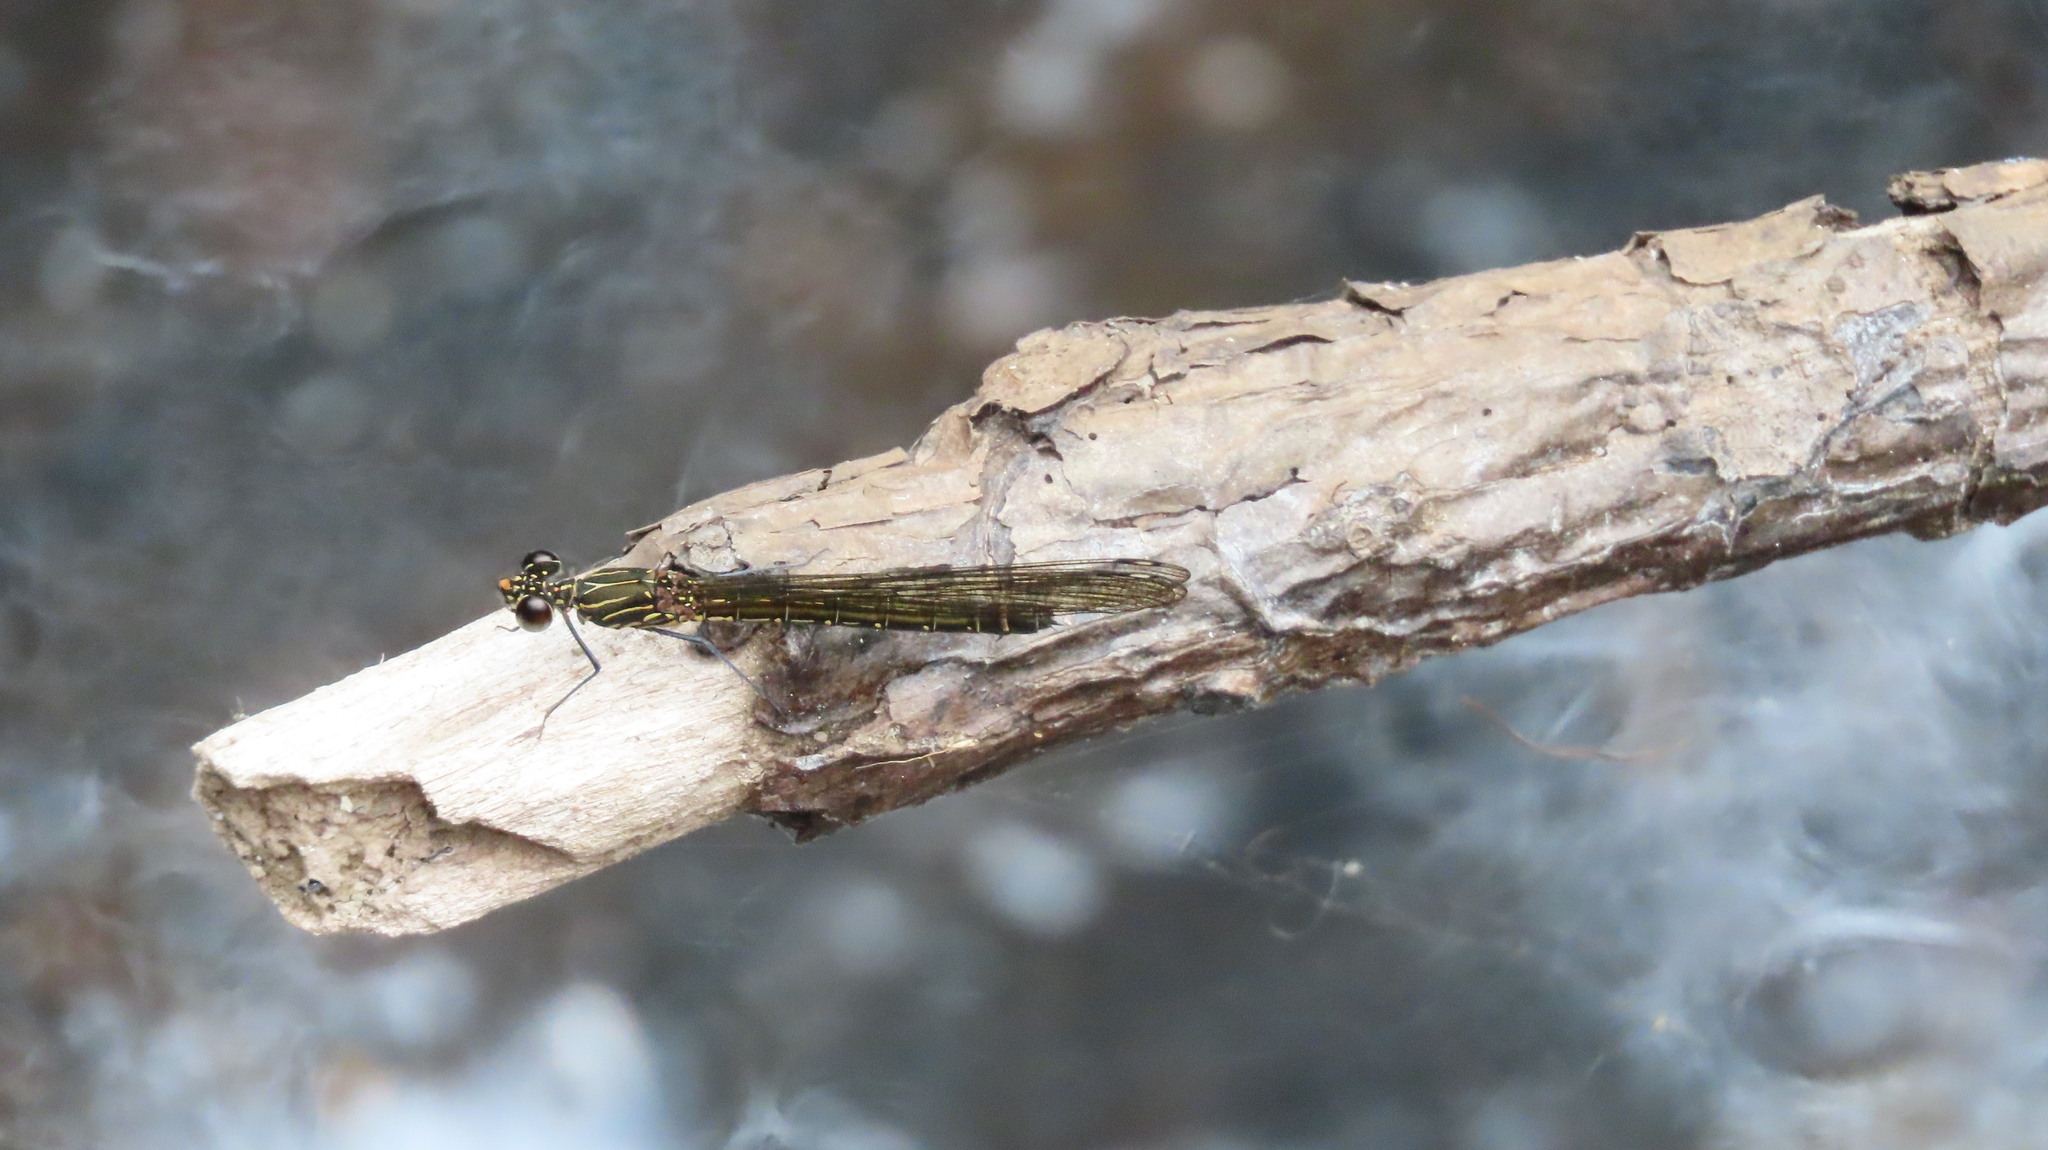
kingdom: Animalia
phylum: Arthropoda
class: Insecta
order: Odonata
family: Chlorocyphidae
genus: Heliocypha
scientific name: Heliocypha bisignata
